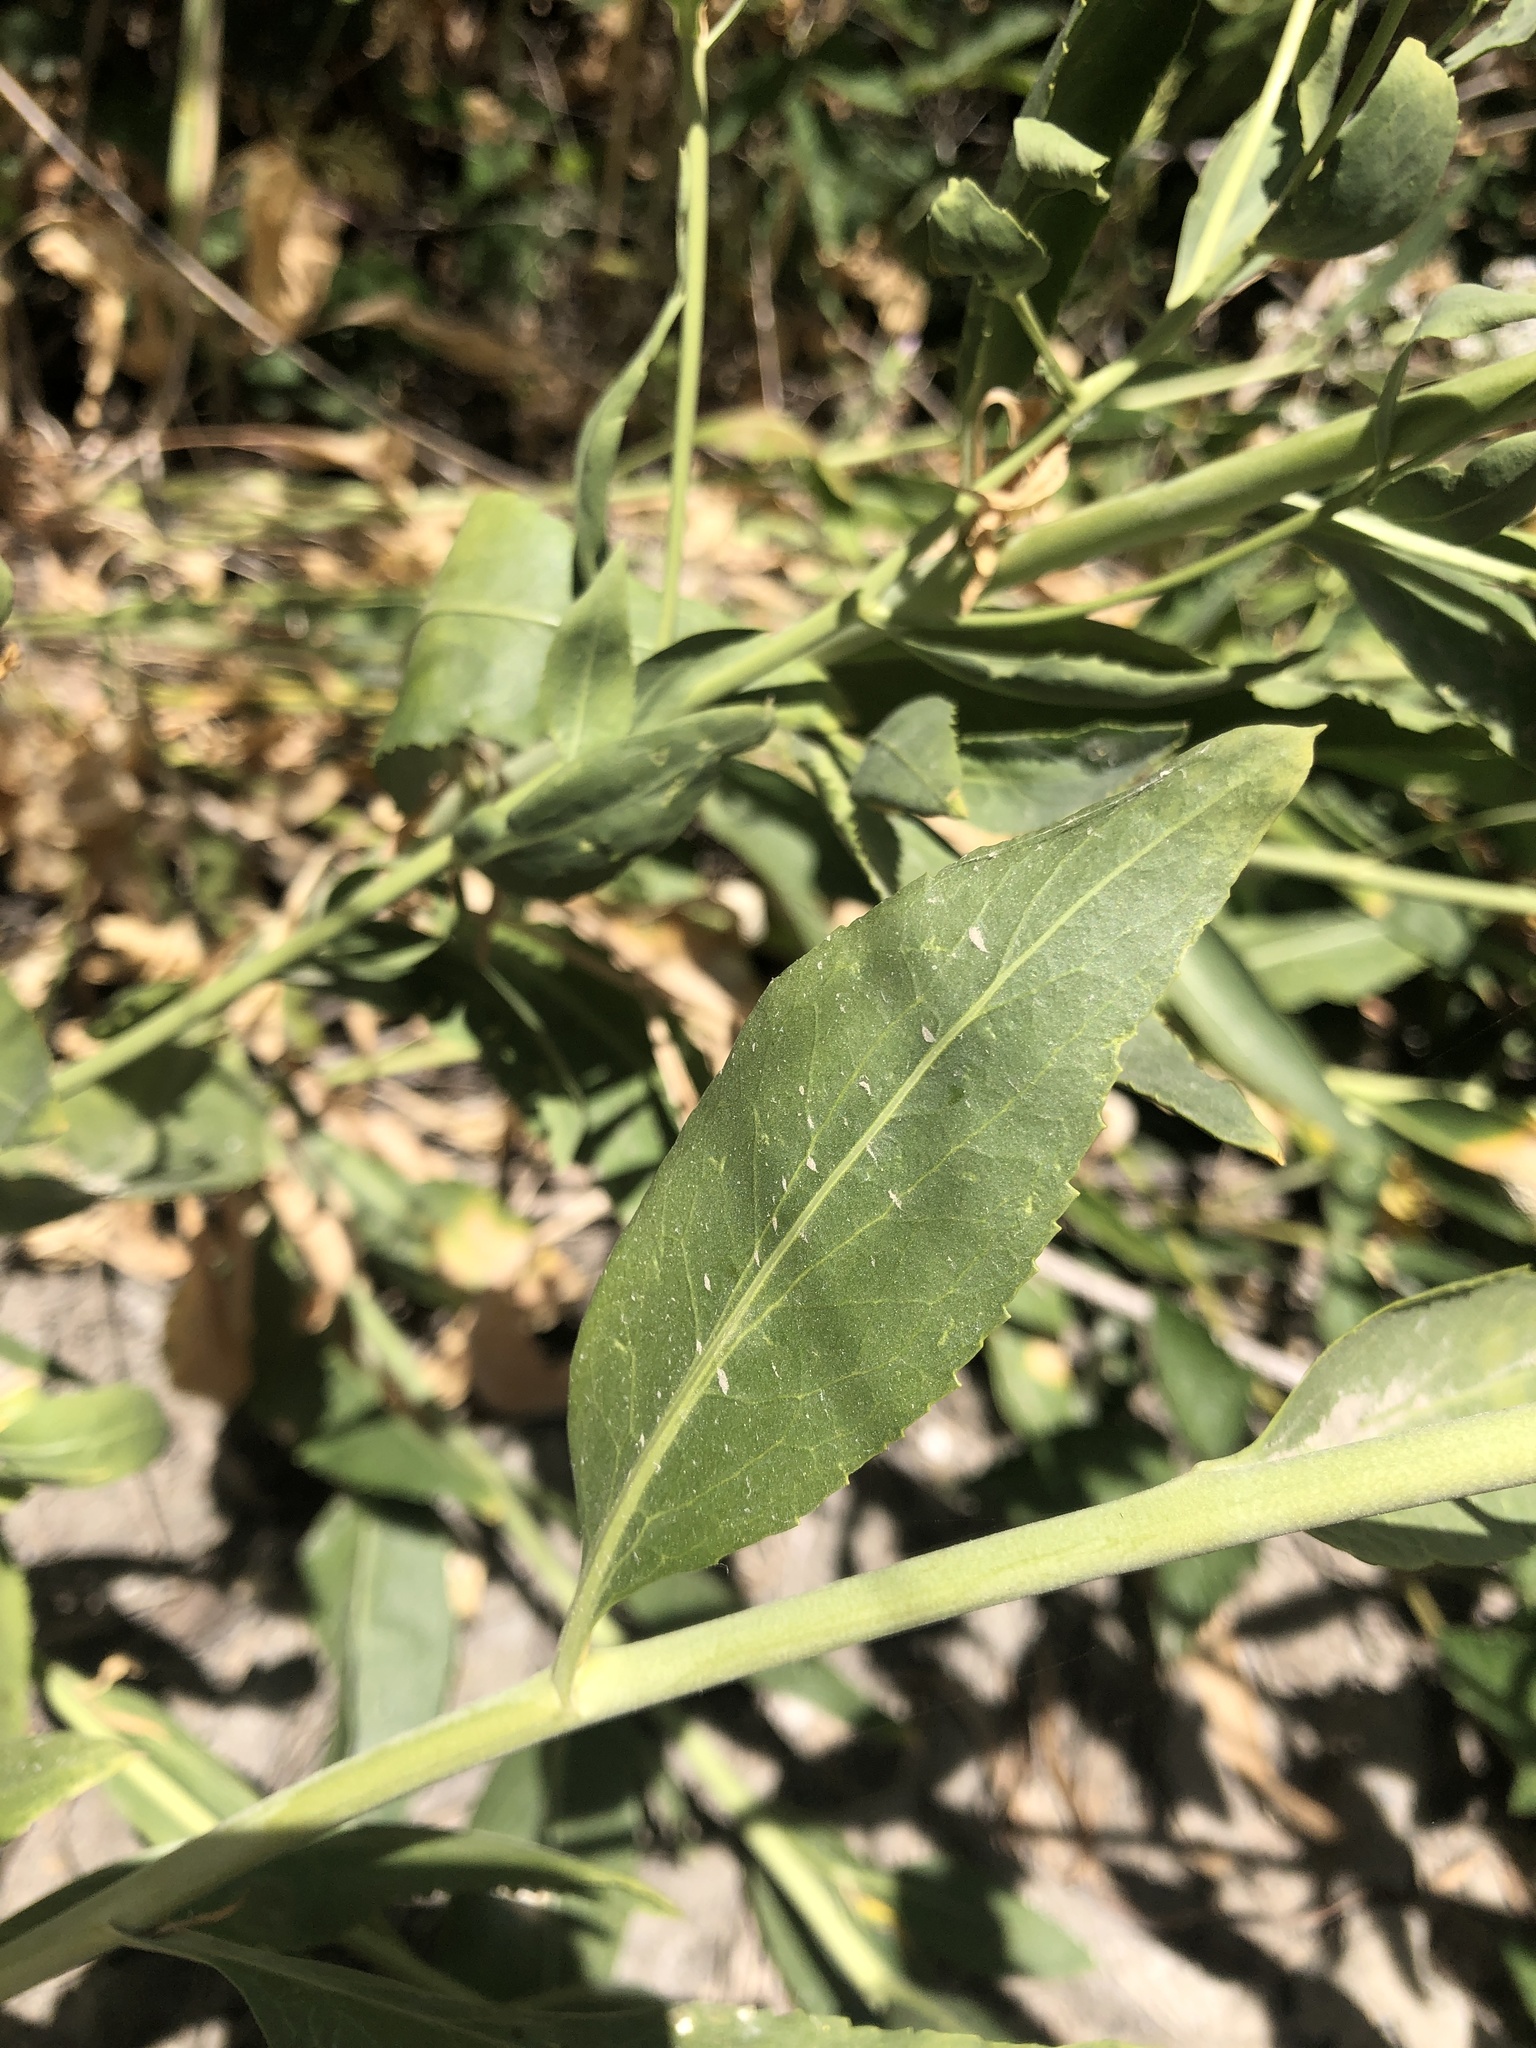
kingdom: Plantae
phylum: Tracheophyta
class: Magnoliopsida
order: Brassicales
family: Brassicaceae
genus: Lepidium
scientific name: Lepidium latifolium
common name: Dittander
